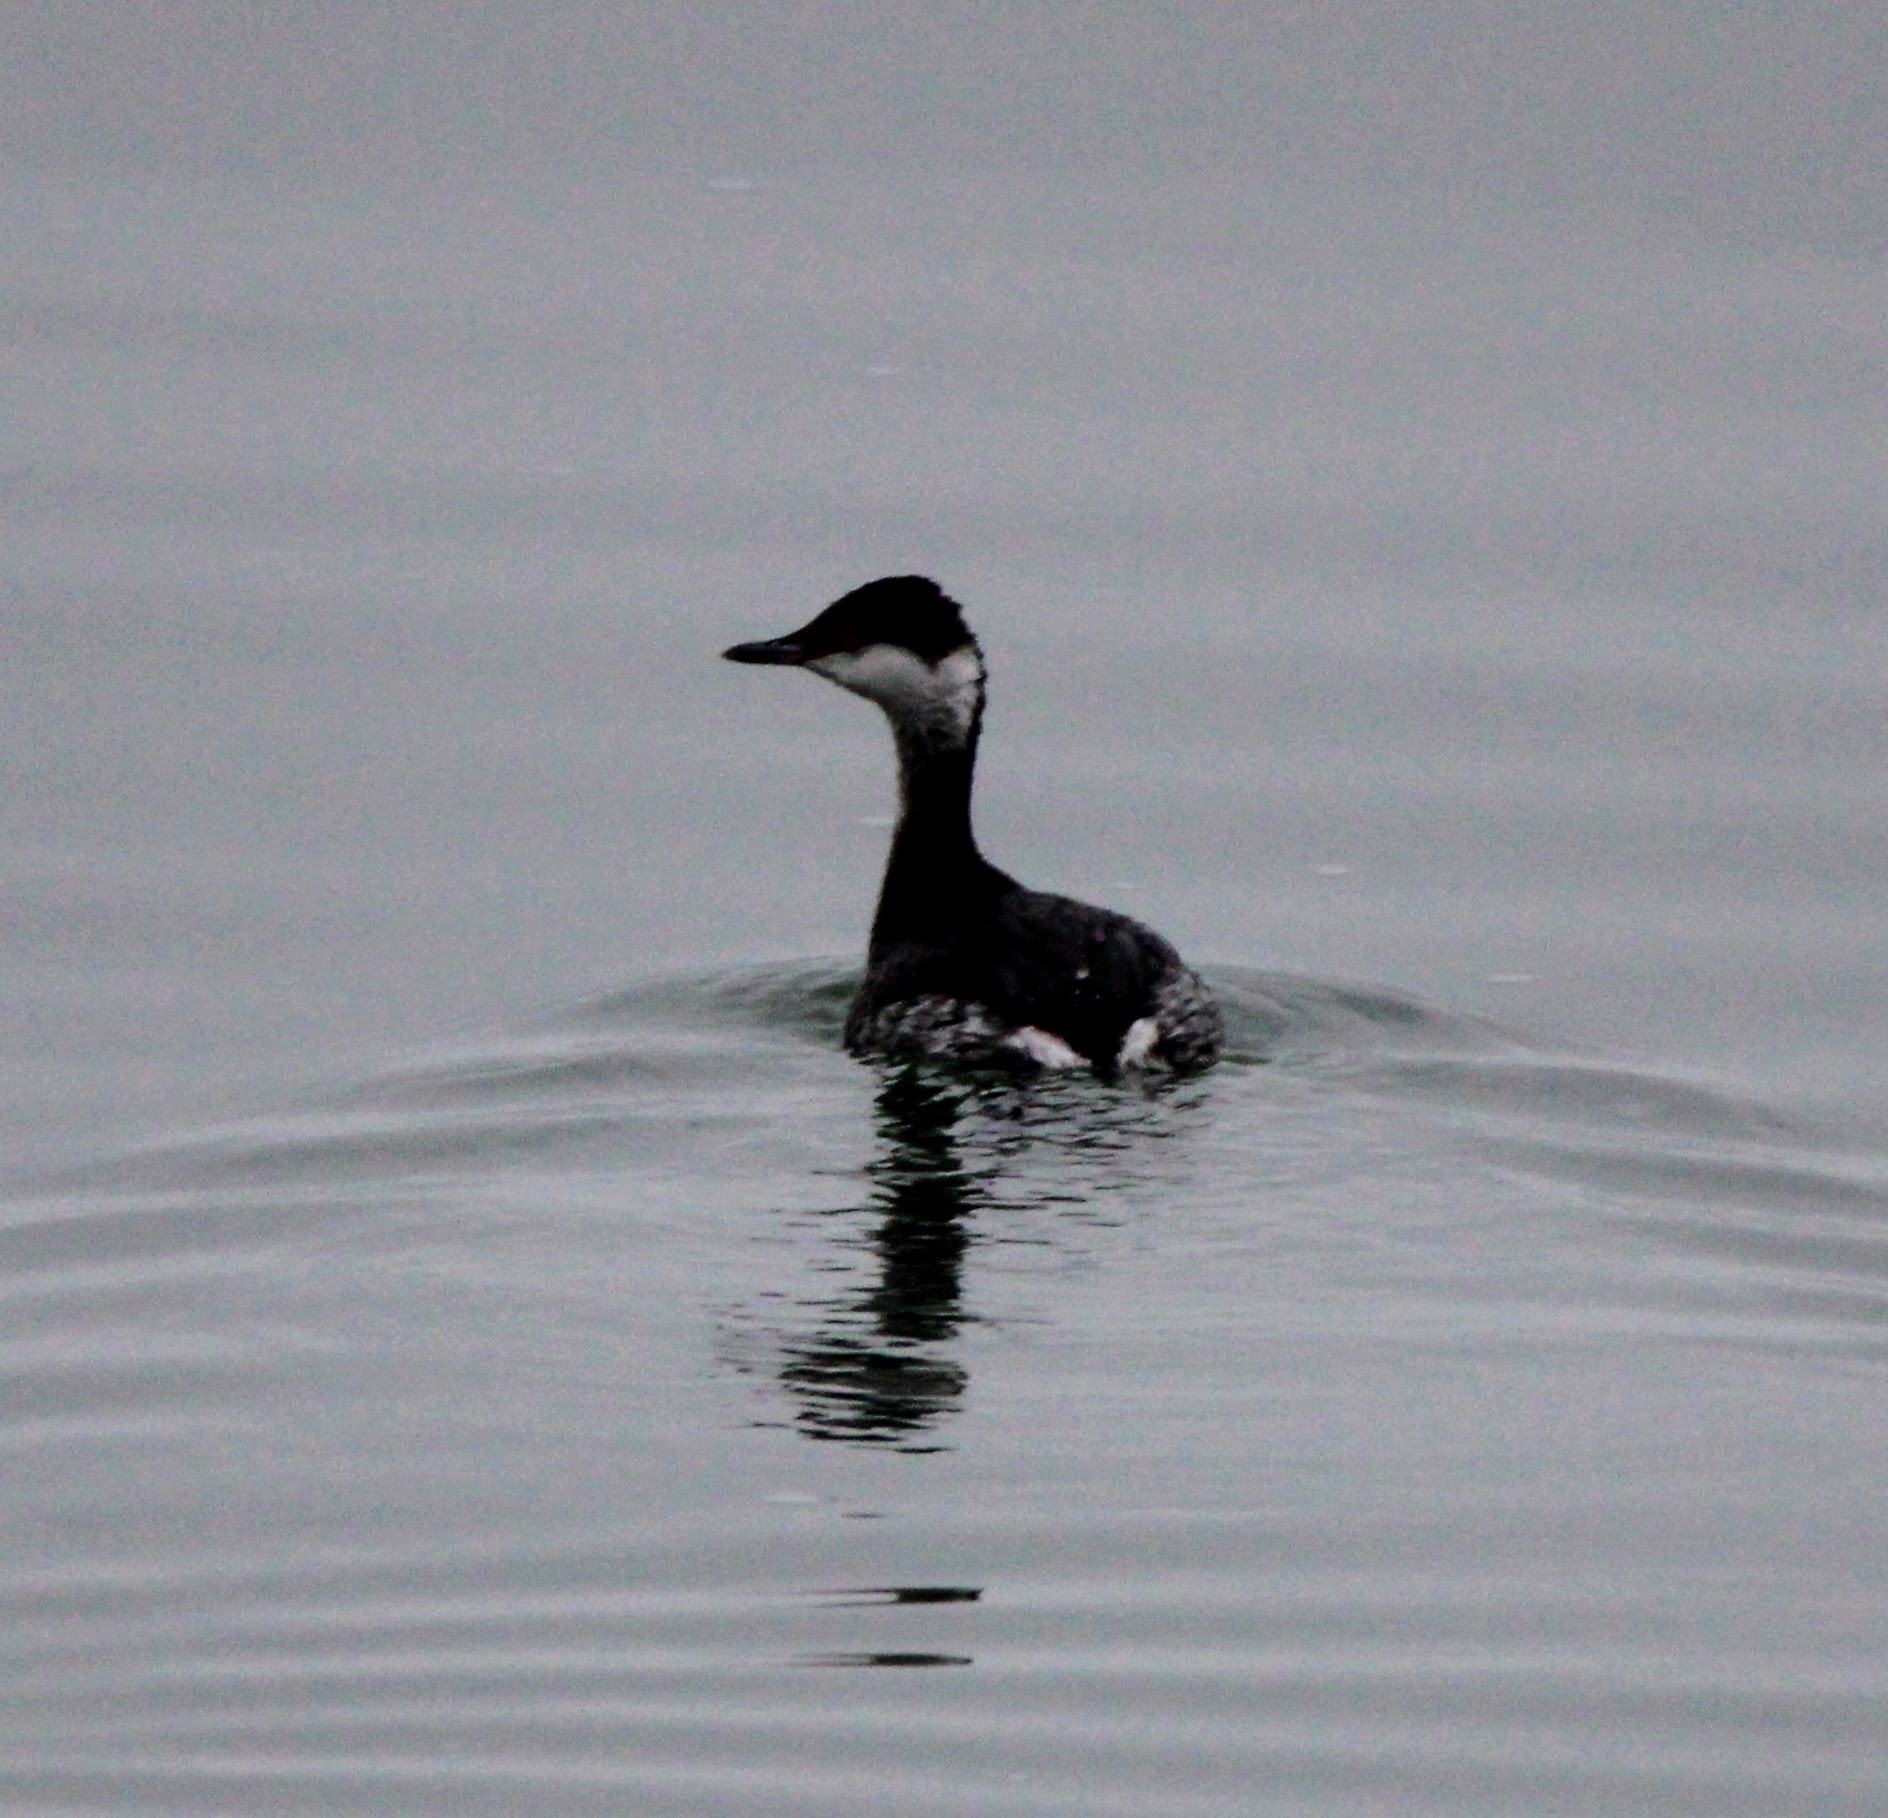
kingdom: Animalia
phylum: Chordata
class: Aves
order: Podicipediformes
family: Podicipedidae
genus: Podiceps
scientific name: Podiceps auritus
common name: Horned grebe
